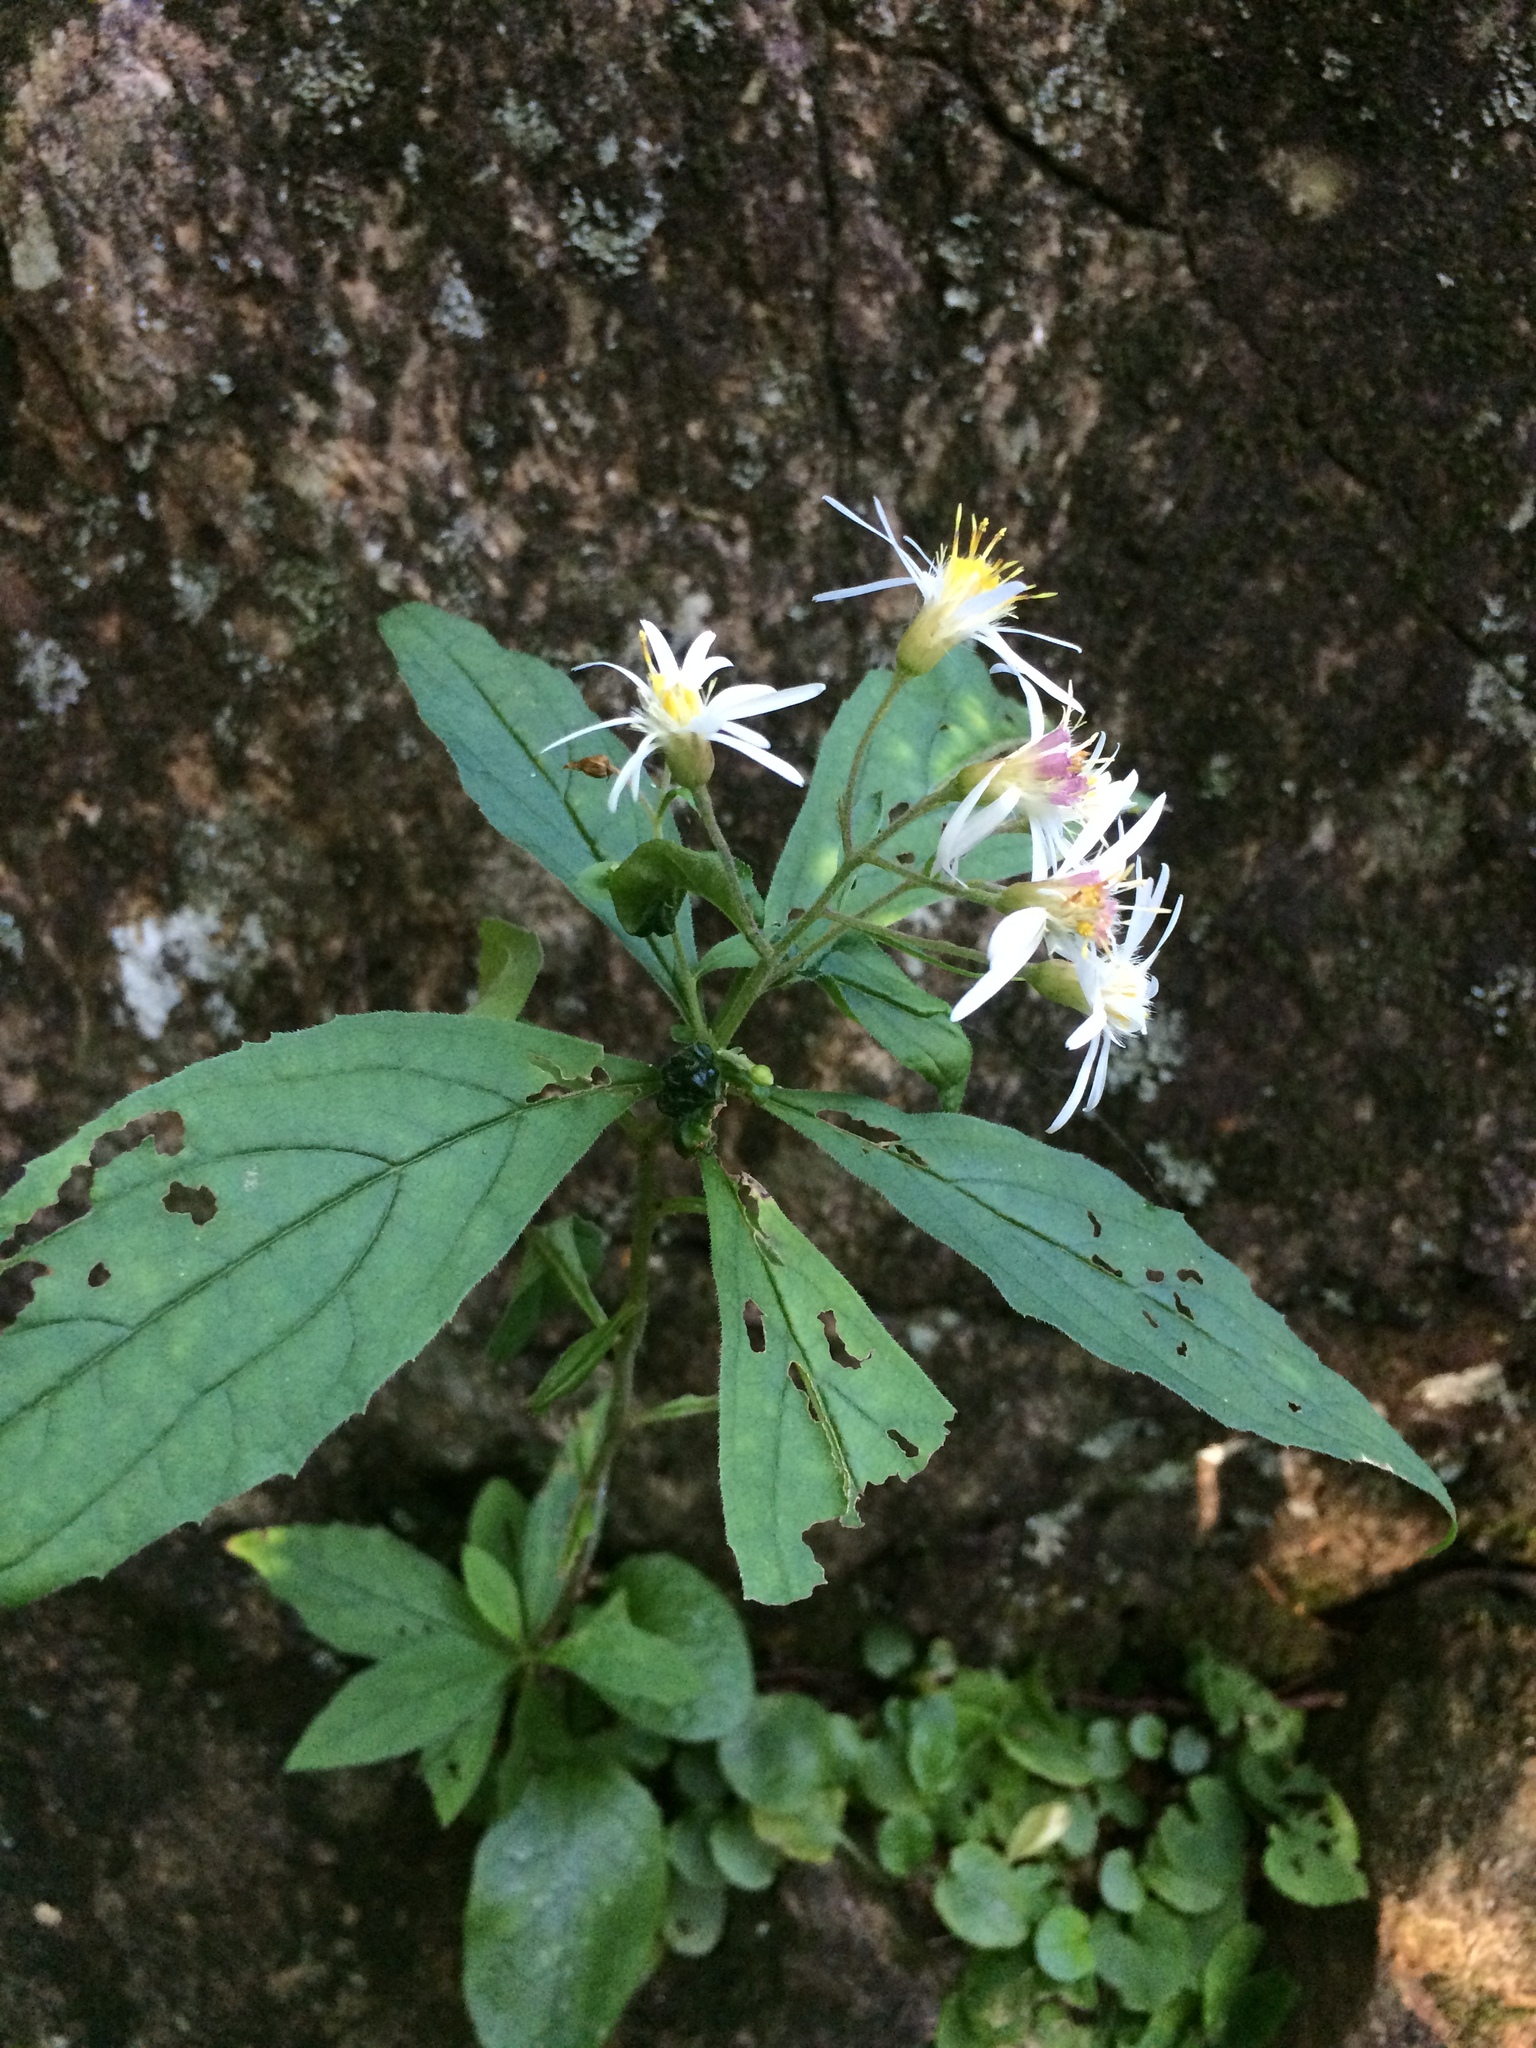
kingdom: Plantae
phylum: Tracheophyta
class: Magnoliopsida
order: Asterales
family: Asteraceae
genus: Oclemena
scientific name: Oclemena acuminata
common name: Mountain aster
